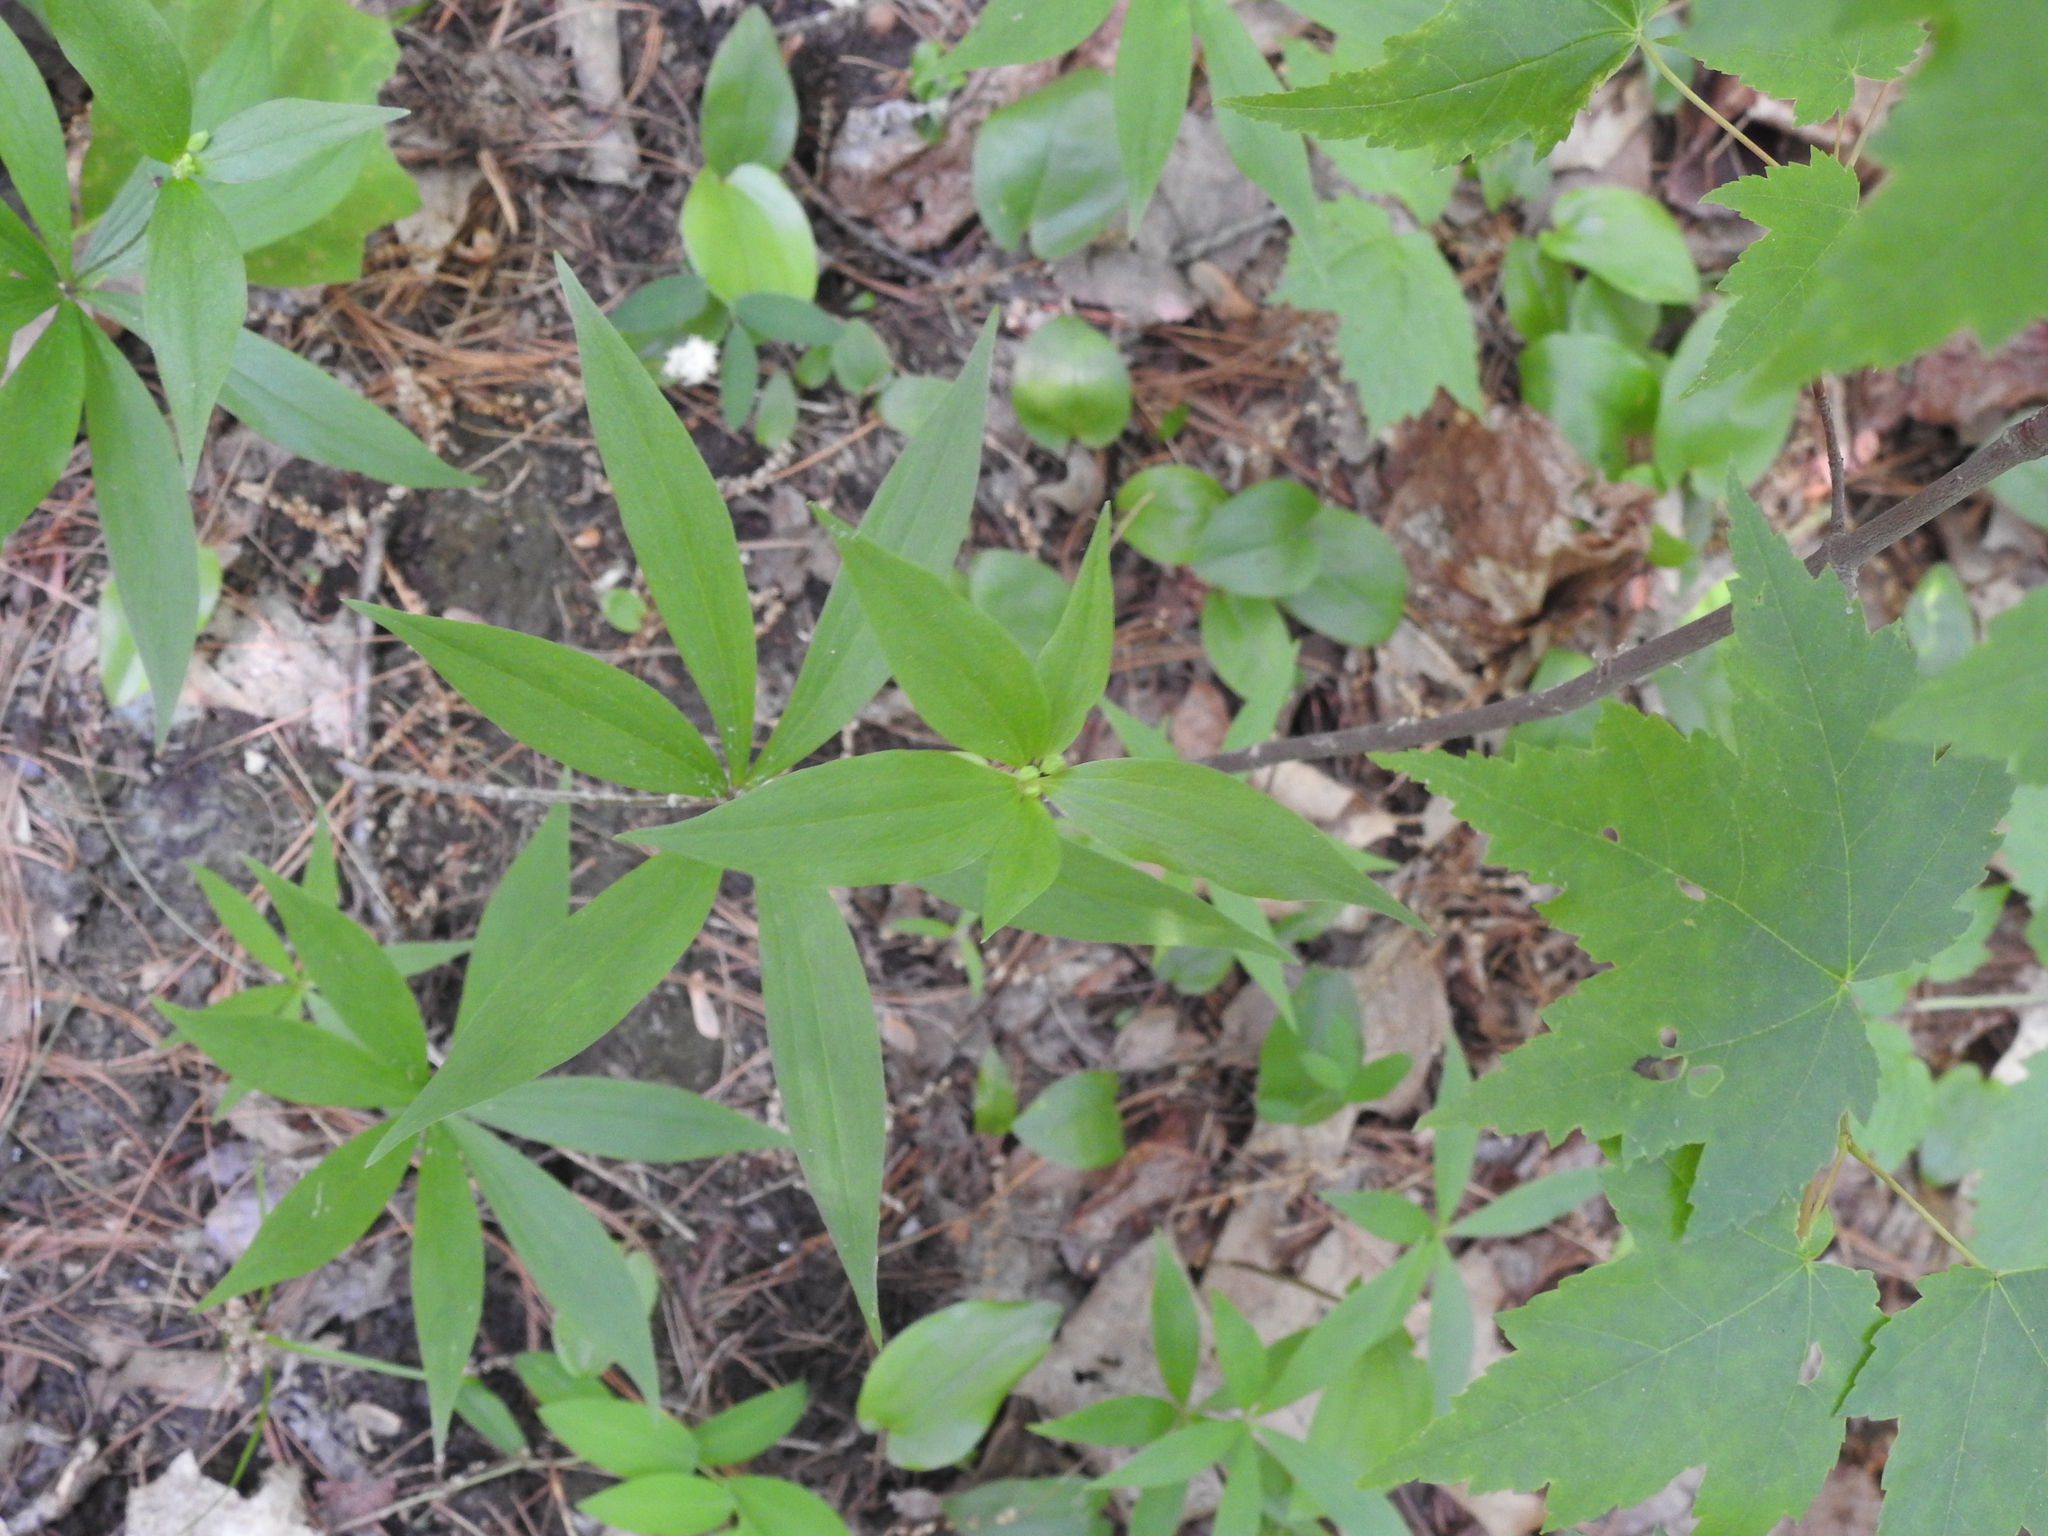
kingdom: Plantae
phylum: Tracheophyta
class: Liliopsida
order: Liliales
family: Liliaceae
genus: Medeola
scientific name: Medeola virginiana
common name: Indian cucumber-root
